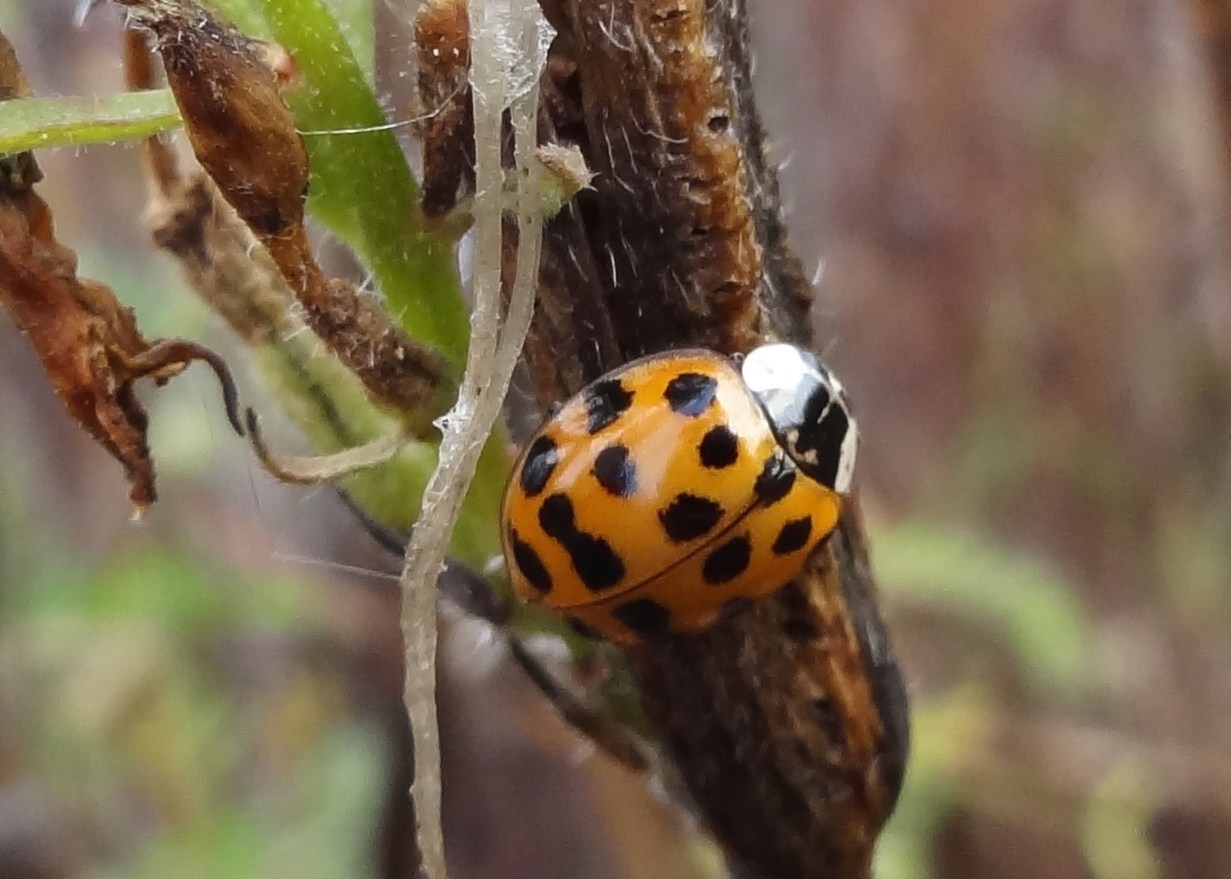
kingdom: Animalia
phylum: Arthropoda
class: Insecta
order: Coleoptera
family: Coccinellidae
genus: Harmonia
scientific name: Harmonia axyridis
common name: Harlequin ladybird
